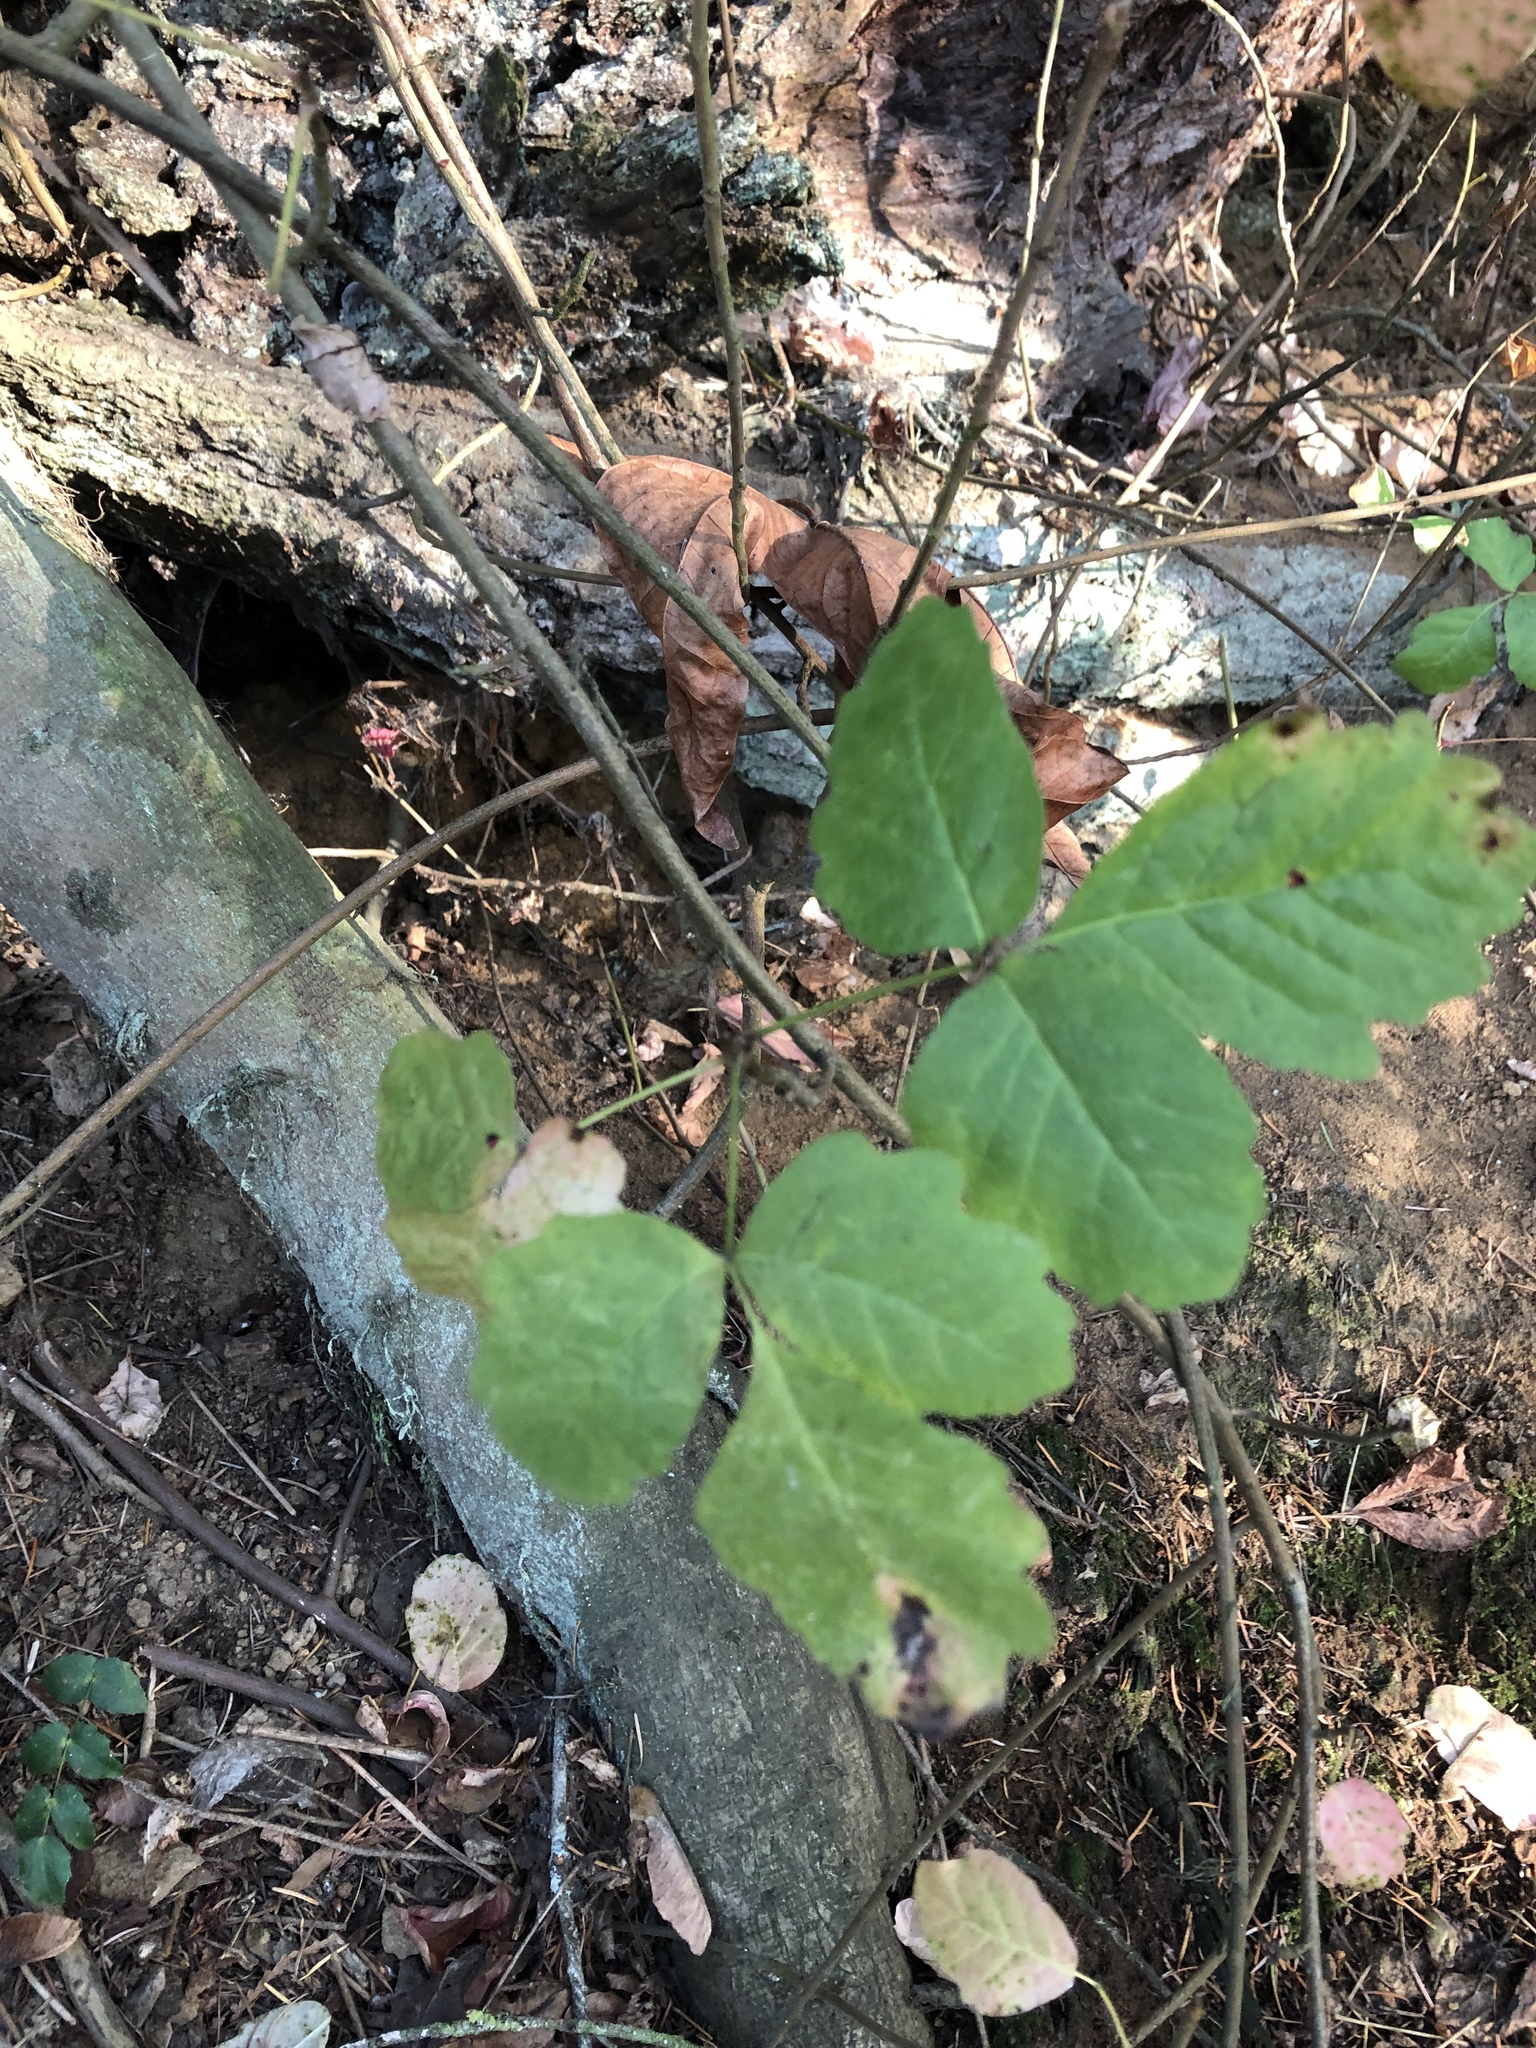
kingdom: Plantae
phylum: Tracheophyta
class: Magnoliopsida
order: Sapindales
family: Anacardiaceae
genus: Toxicodendron
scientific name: Toxicodendron diversilobum
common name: Pacific poison-oak
